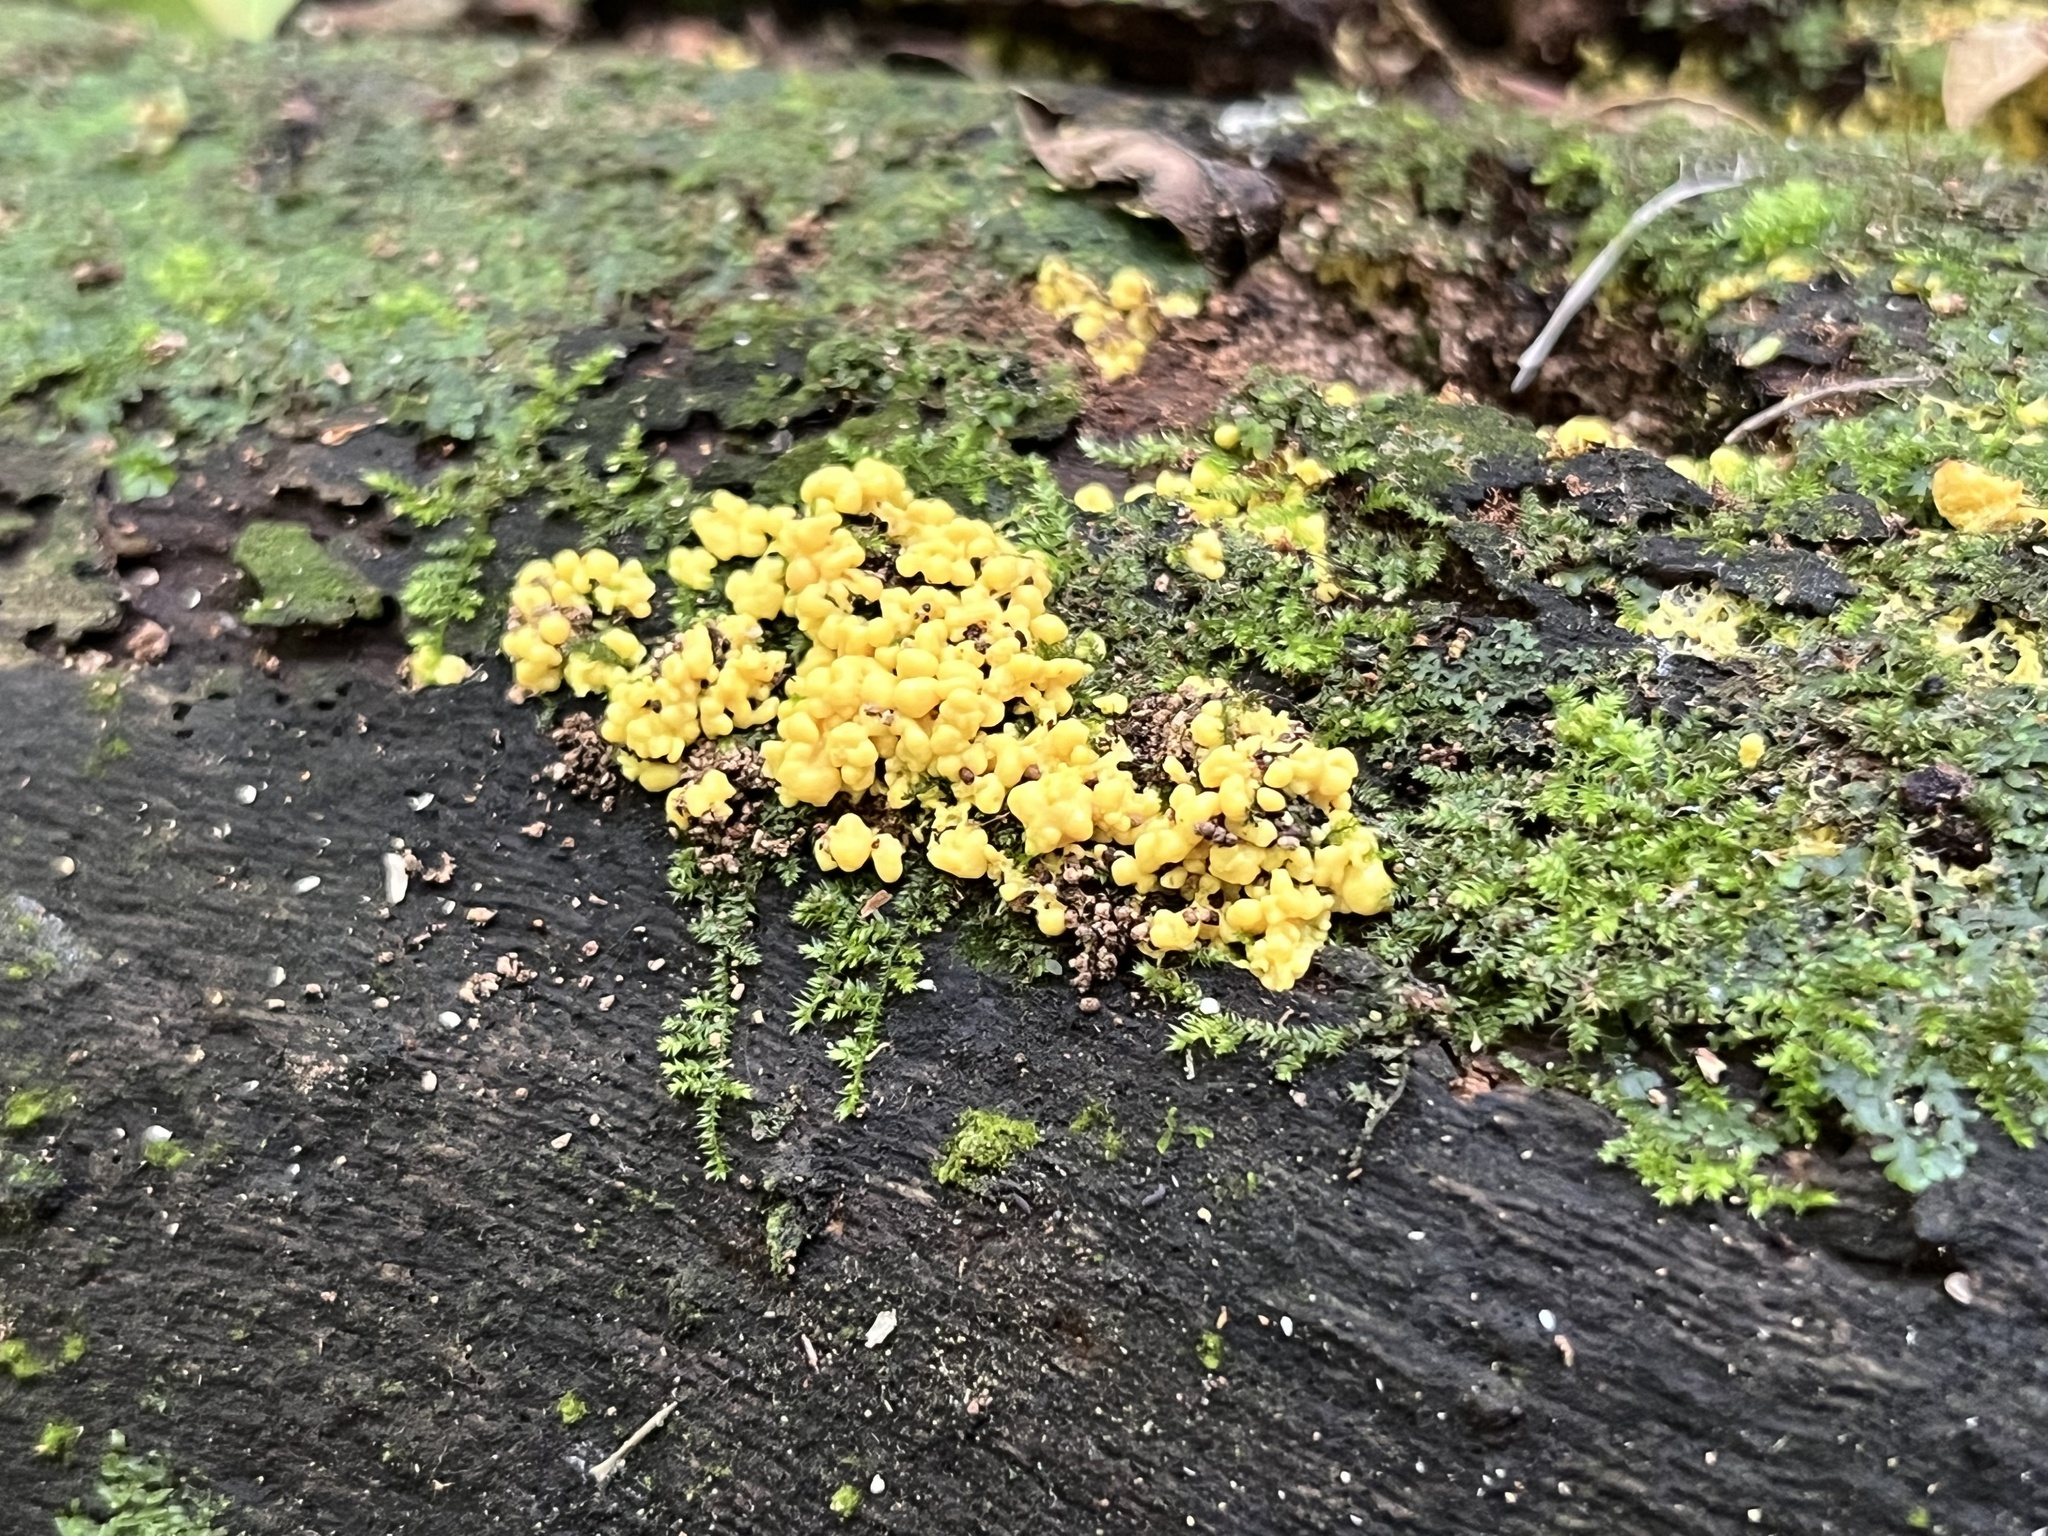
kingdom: Protozoa
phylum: Mycetozoa
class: Myxomycetes
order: Physarales
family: Physaraceae
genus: Fuligo
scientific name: Fuligo septica
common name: Dog vomit slime mold
